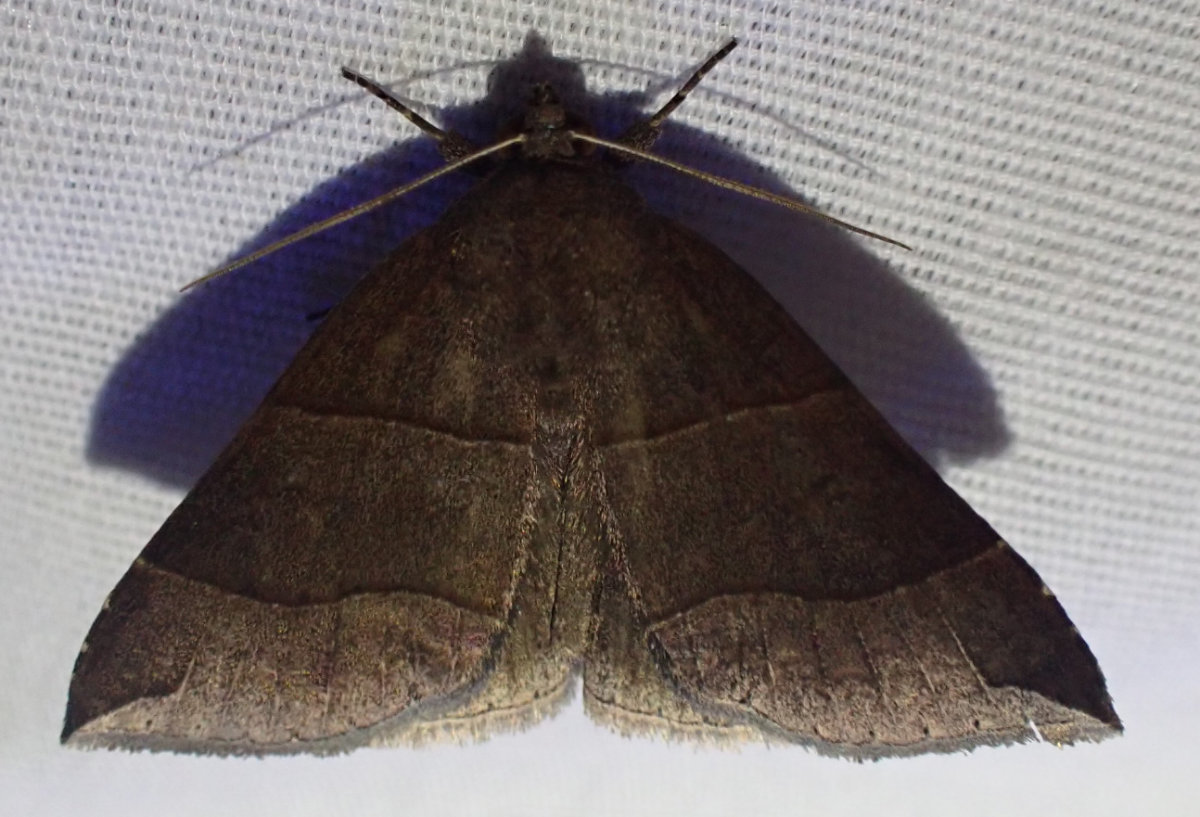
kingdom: Animalia
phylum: Arthropoda
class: Insecta
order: Lepidoptera
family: Erebidae
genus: Parallelia
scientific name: Parallelia bistriaris
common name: Maple looper moth
